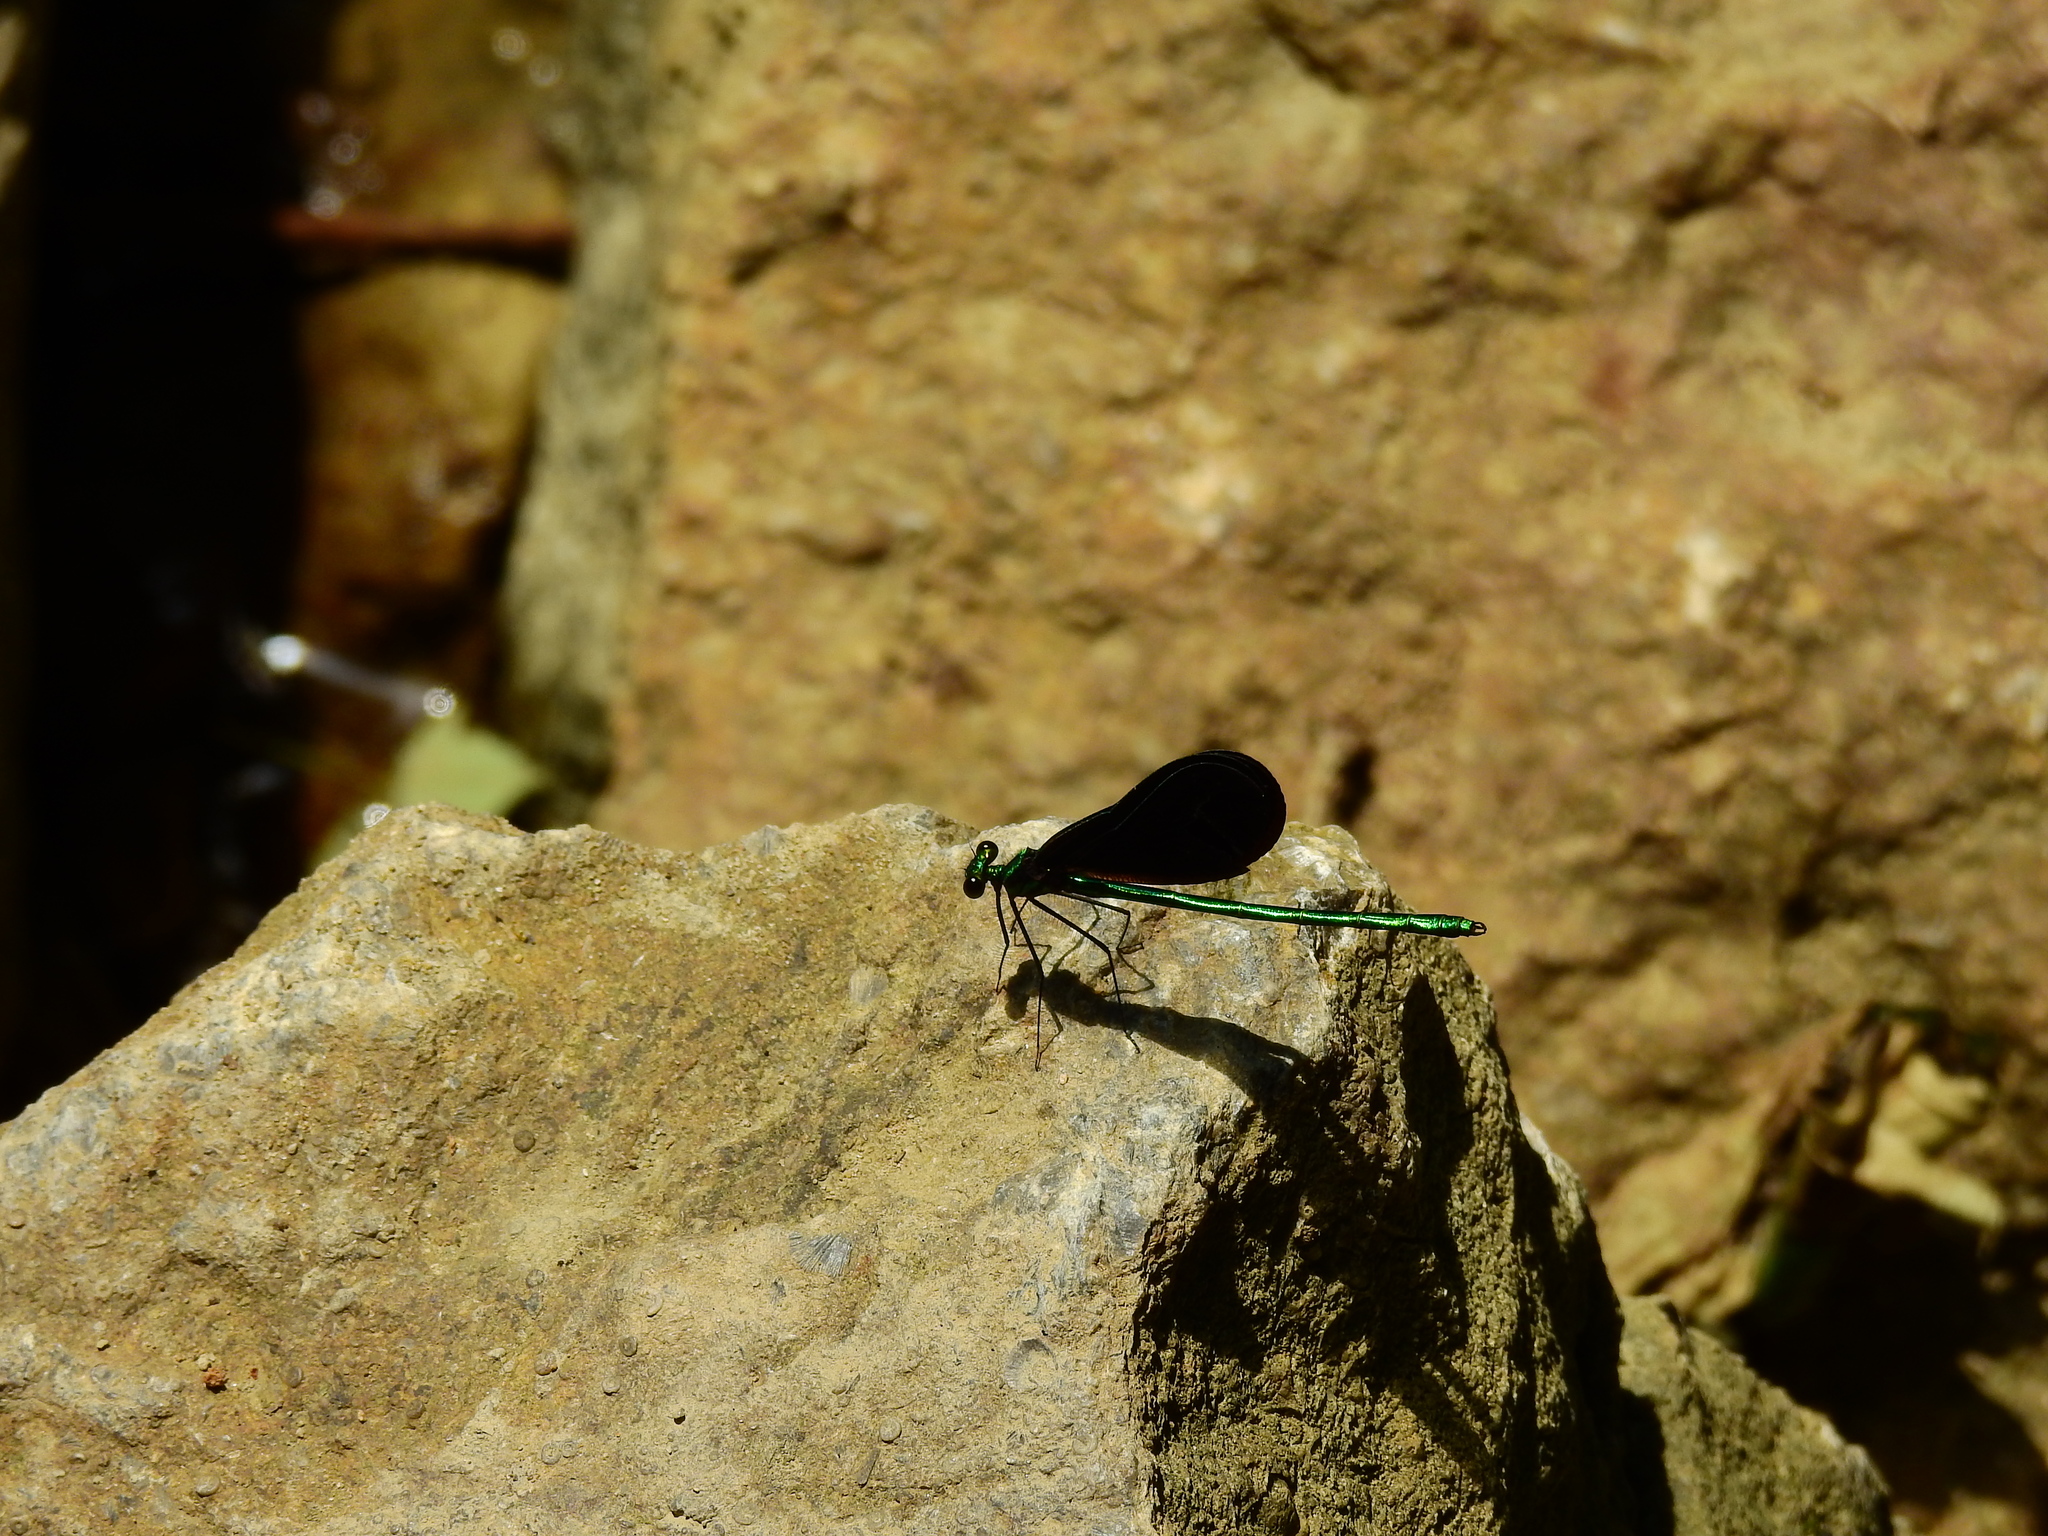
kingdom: Animalia
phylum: Arthropoda
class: Insecta
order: Odonata
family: Calopterygidae
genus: Calopteryx
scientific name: Calopteryx maculata
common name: Ebony jewelwing
